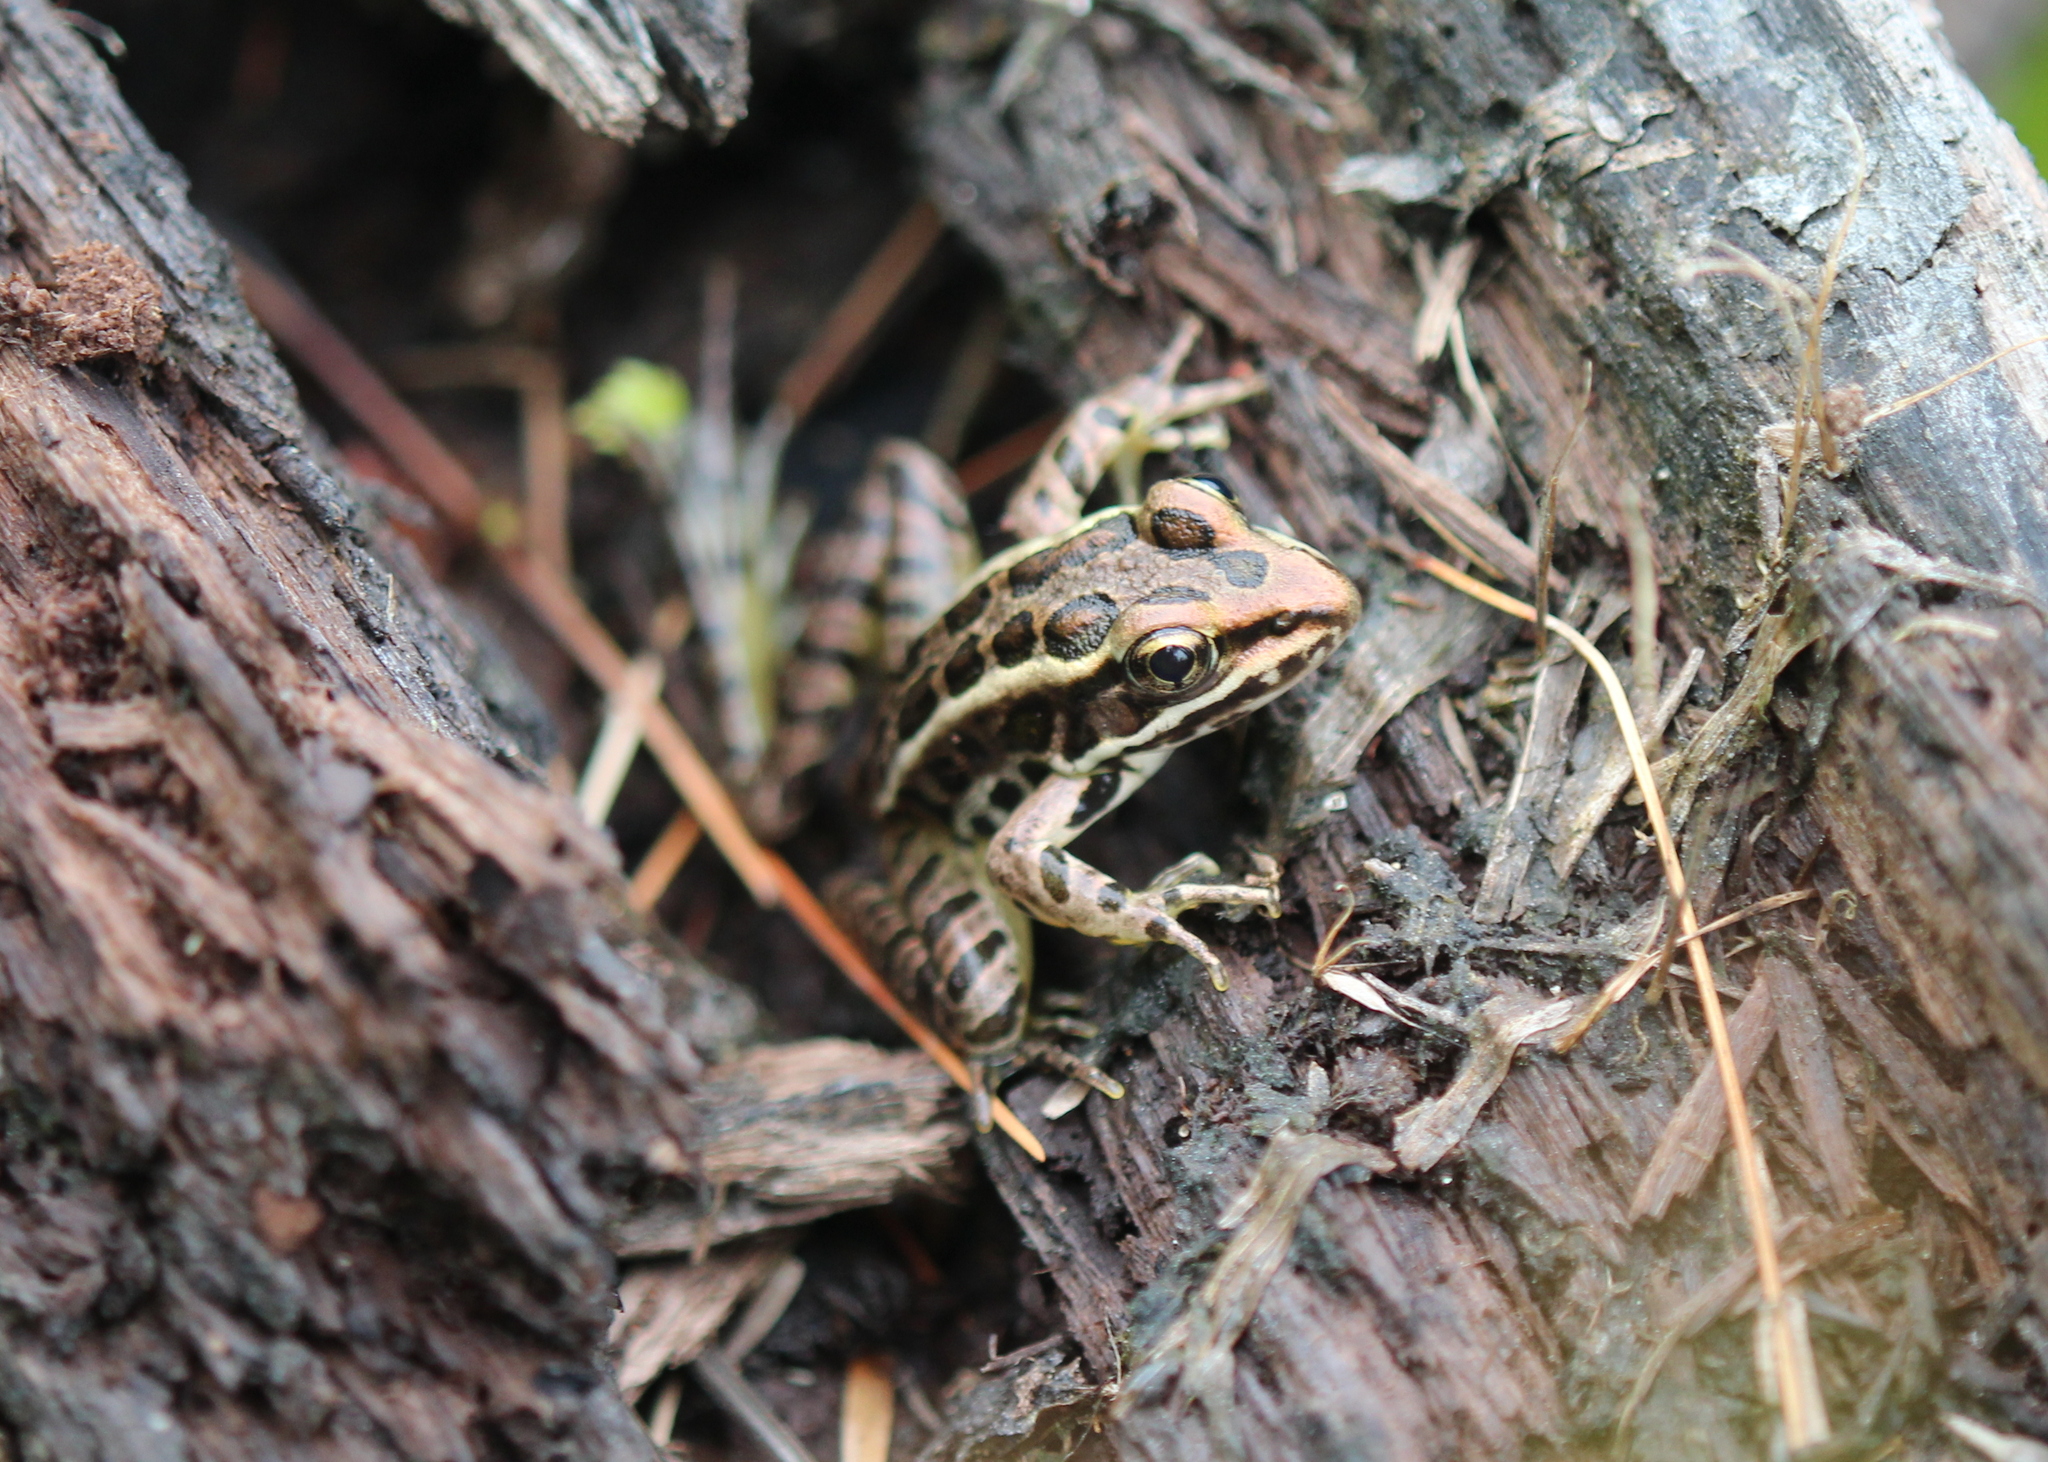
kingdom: Animalia
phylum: Chordata
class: Amphibia
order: Anura
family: Ranidae
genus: Lithobates
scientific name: Lithobates palustris
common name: Pickerel frog
